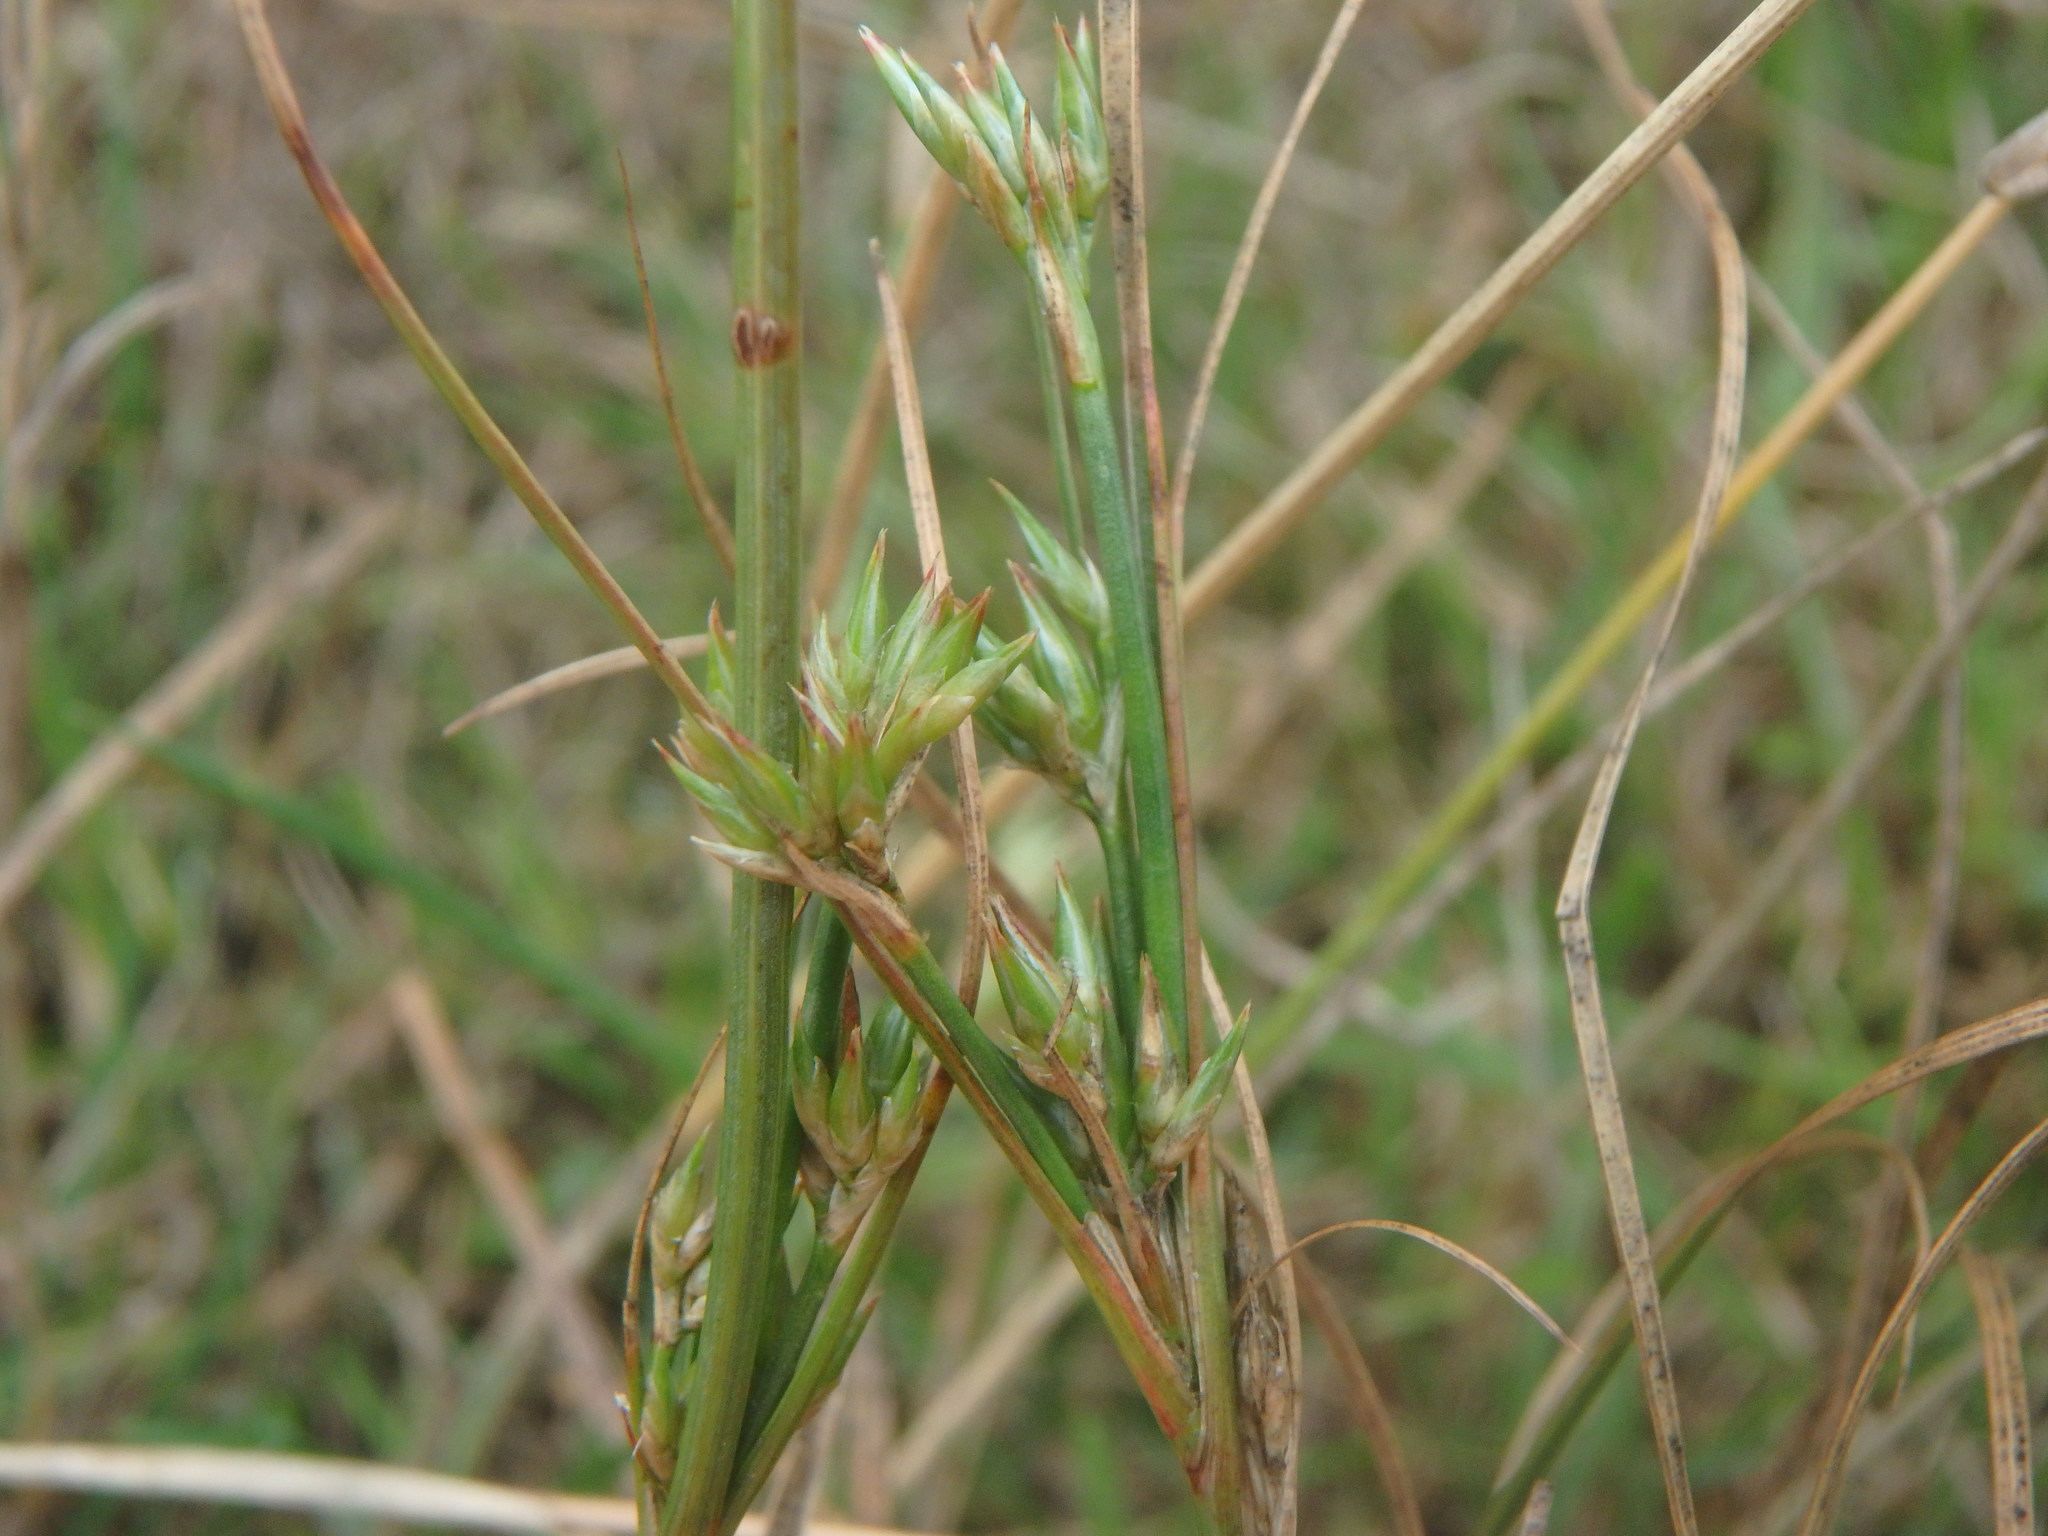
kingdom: Plantae
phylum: Tracheophyta
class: Liliopsida
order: Poales
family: Juncaceae
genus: Juncus
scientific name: Juncus tenuis
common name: Slender rush
